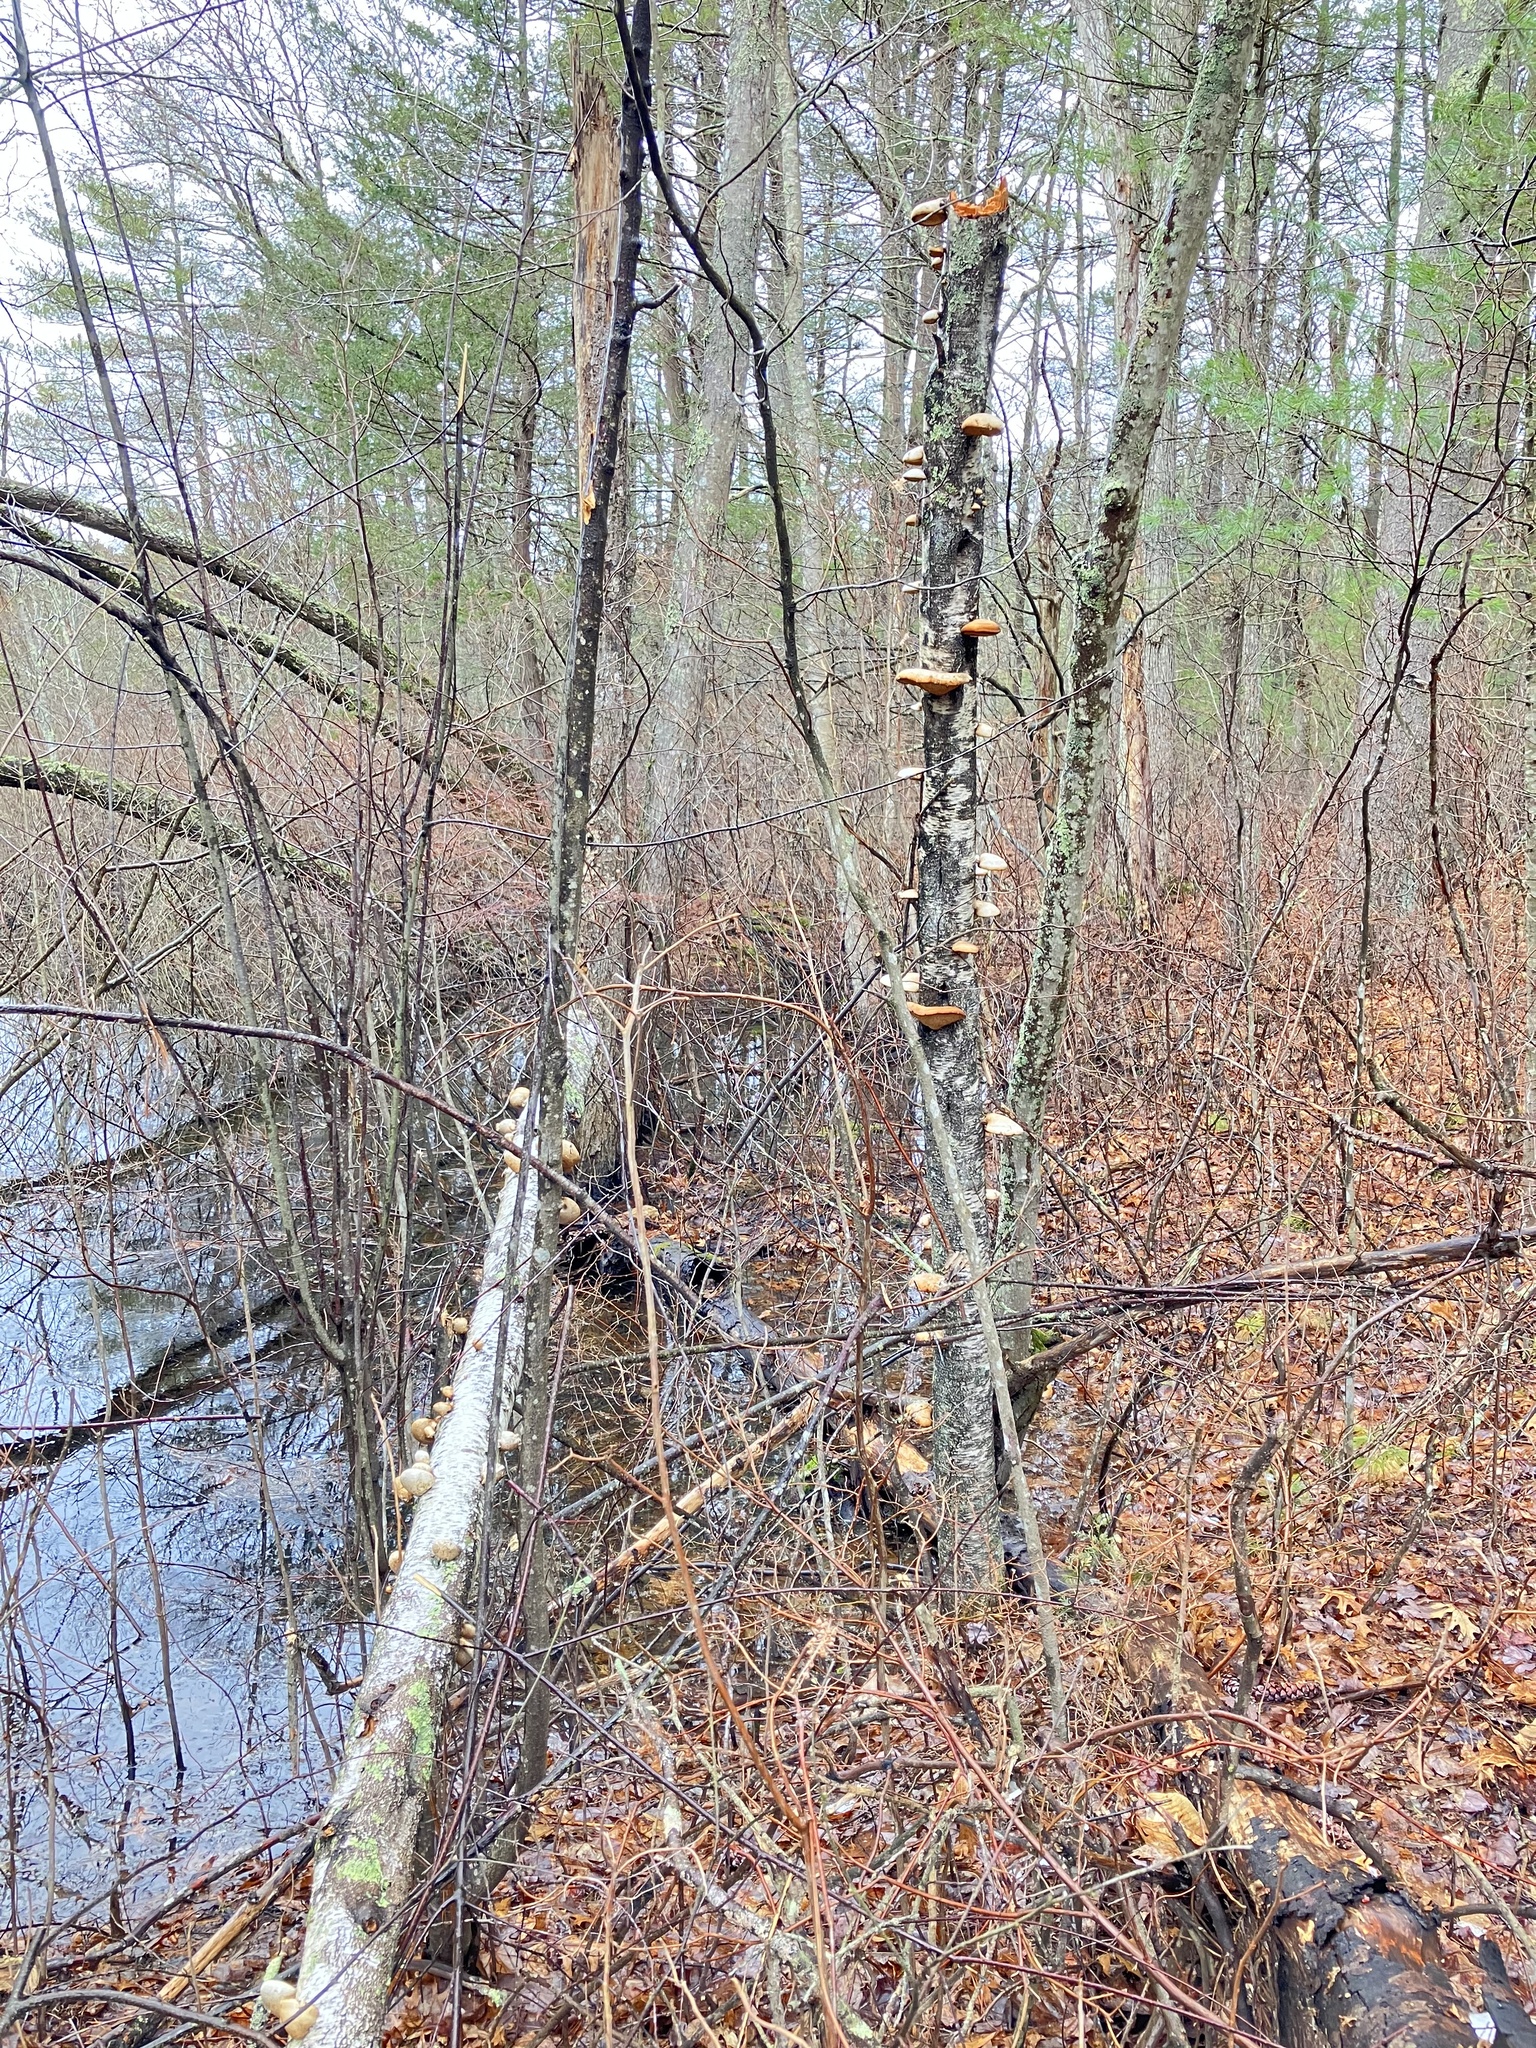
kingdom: Fungi
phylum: Basidiomycota
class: Agaricomycetes
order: Polyporales
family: Fomitopsidaceae
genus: Fomitopsis
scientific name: Fomitopsis betulina
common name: Birch polypore
